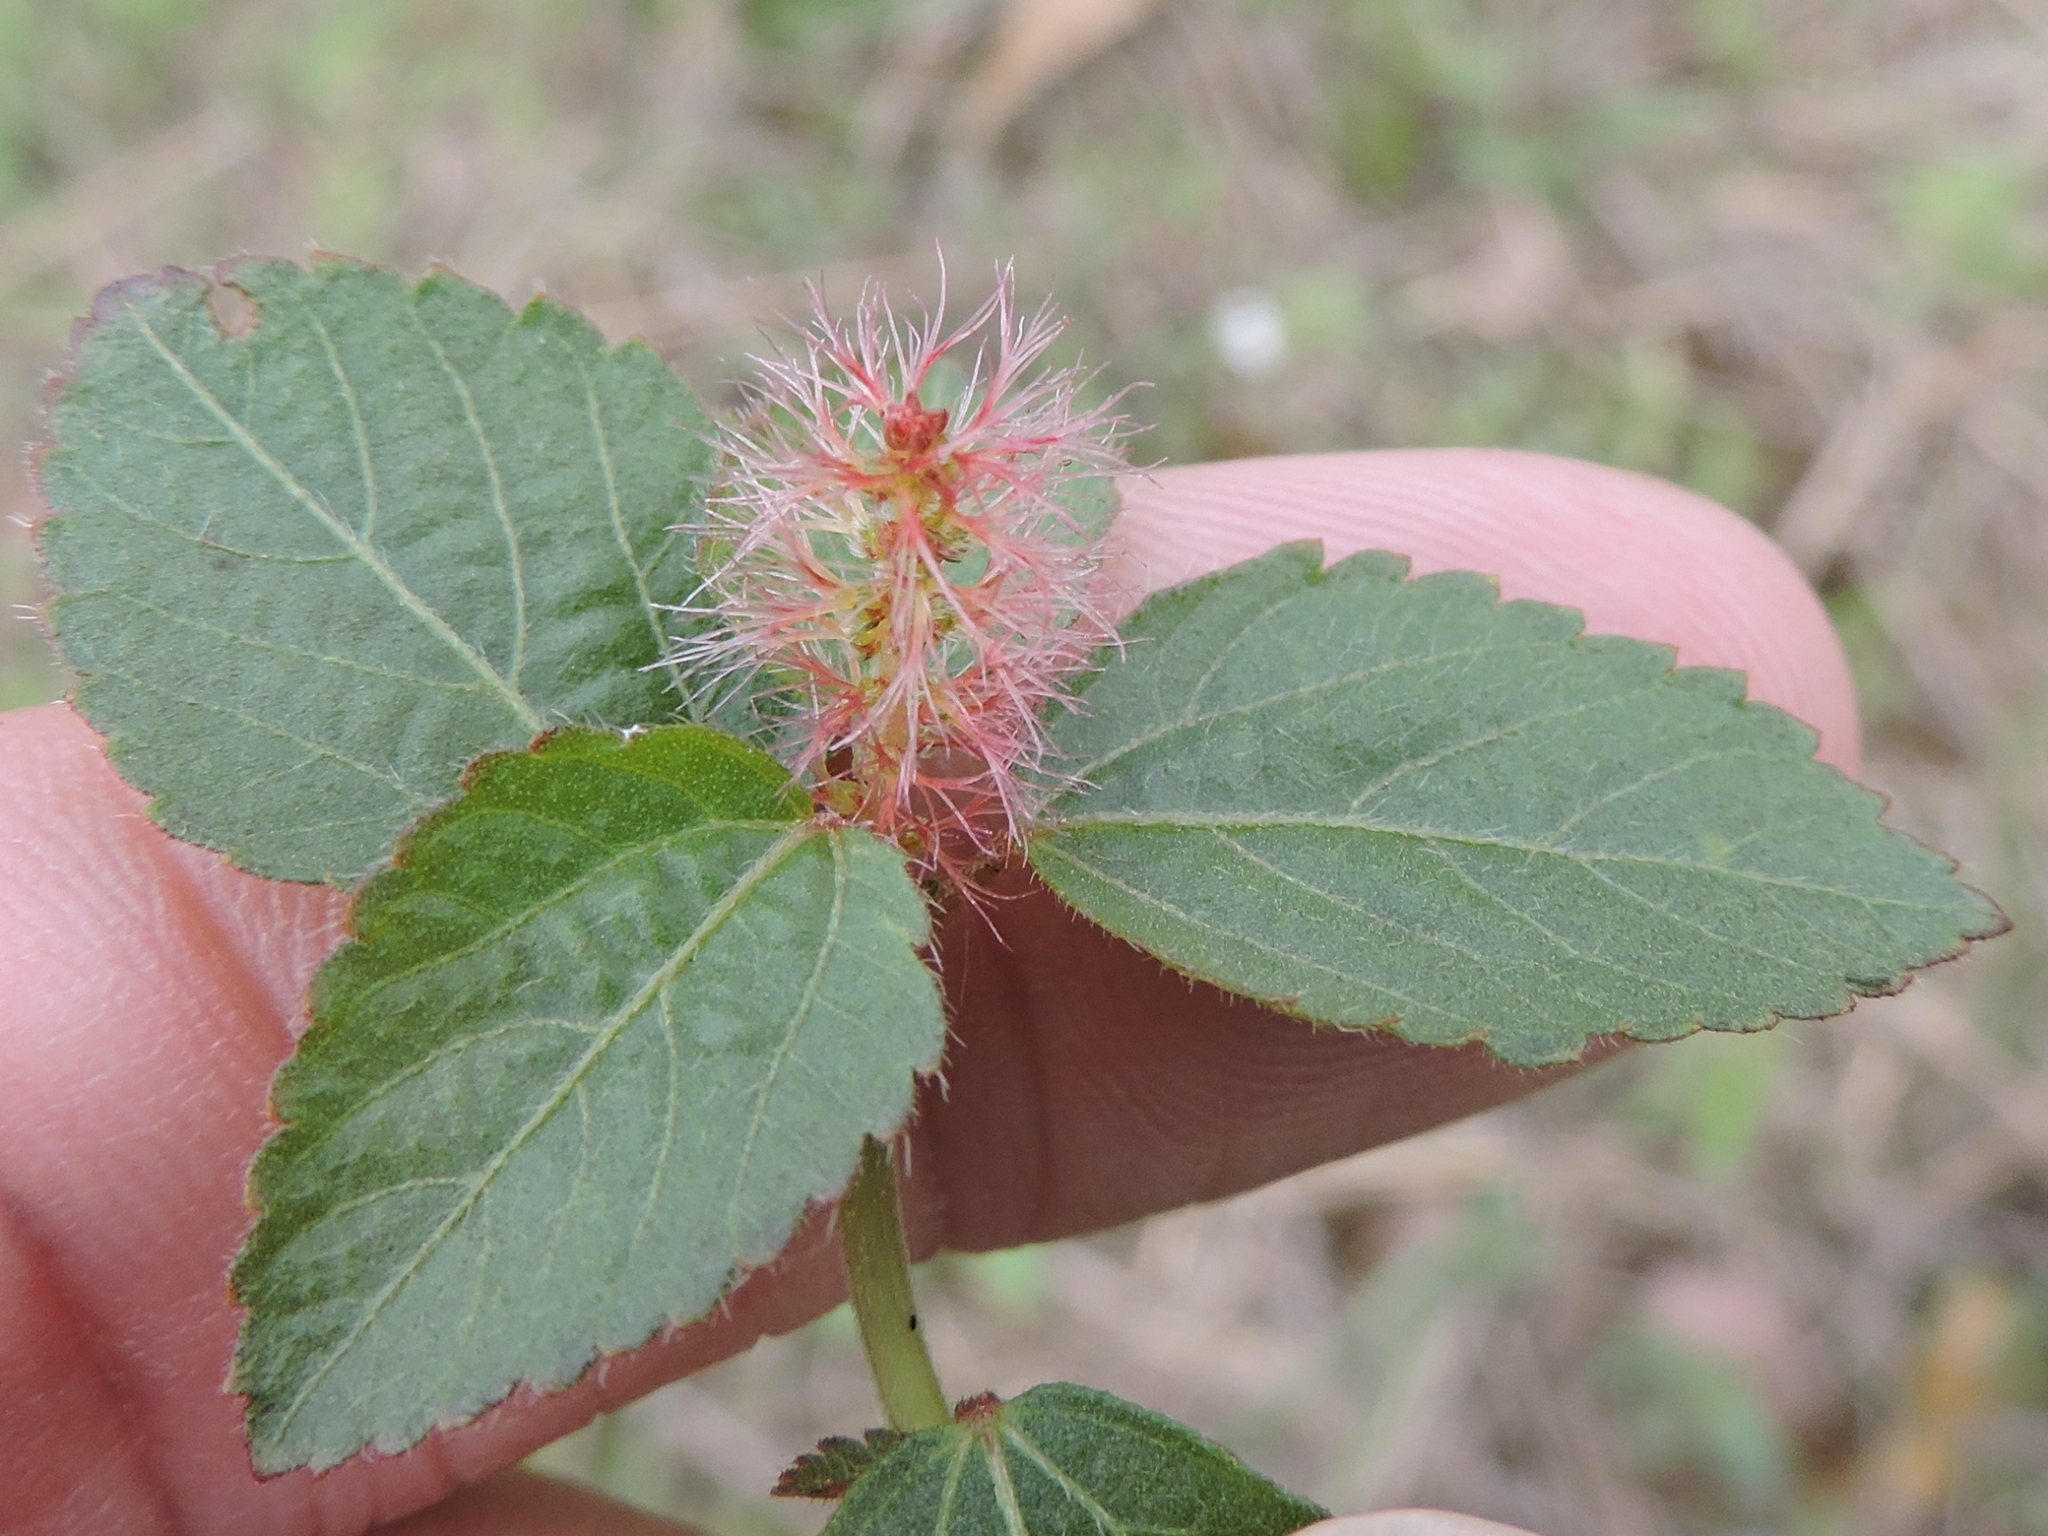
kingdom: Plantae
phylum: Tracheophyta
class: Magnoliopsida
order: Malpighiales
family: Euphorbiaceae
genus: Acalypha
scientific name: Acalypha phleoides
